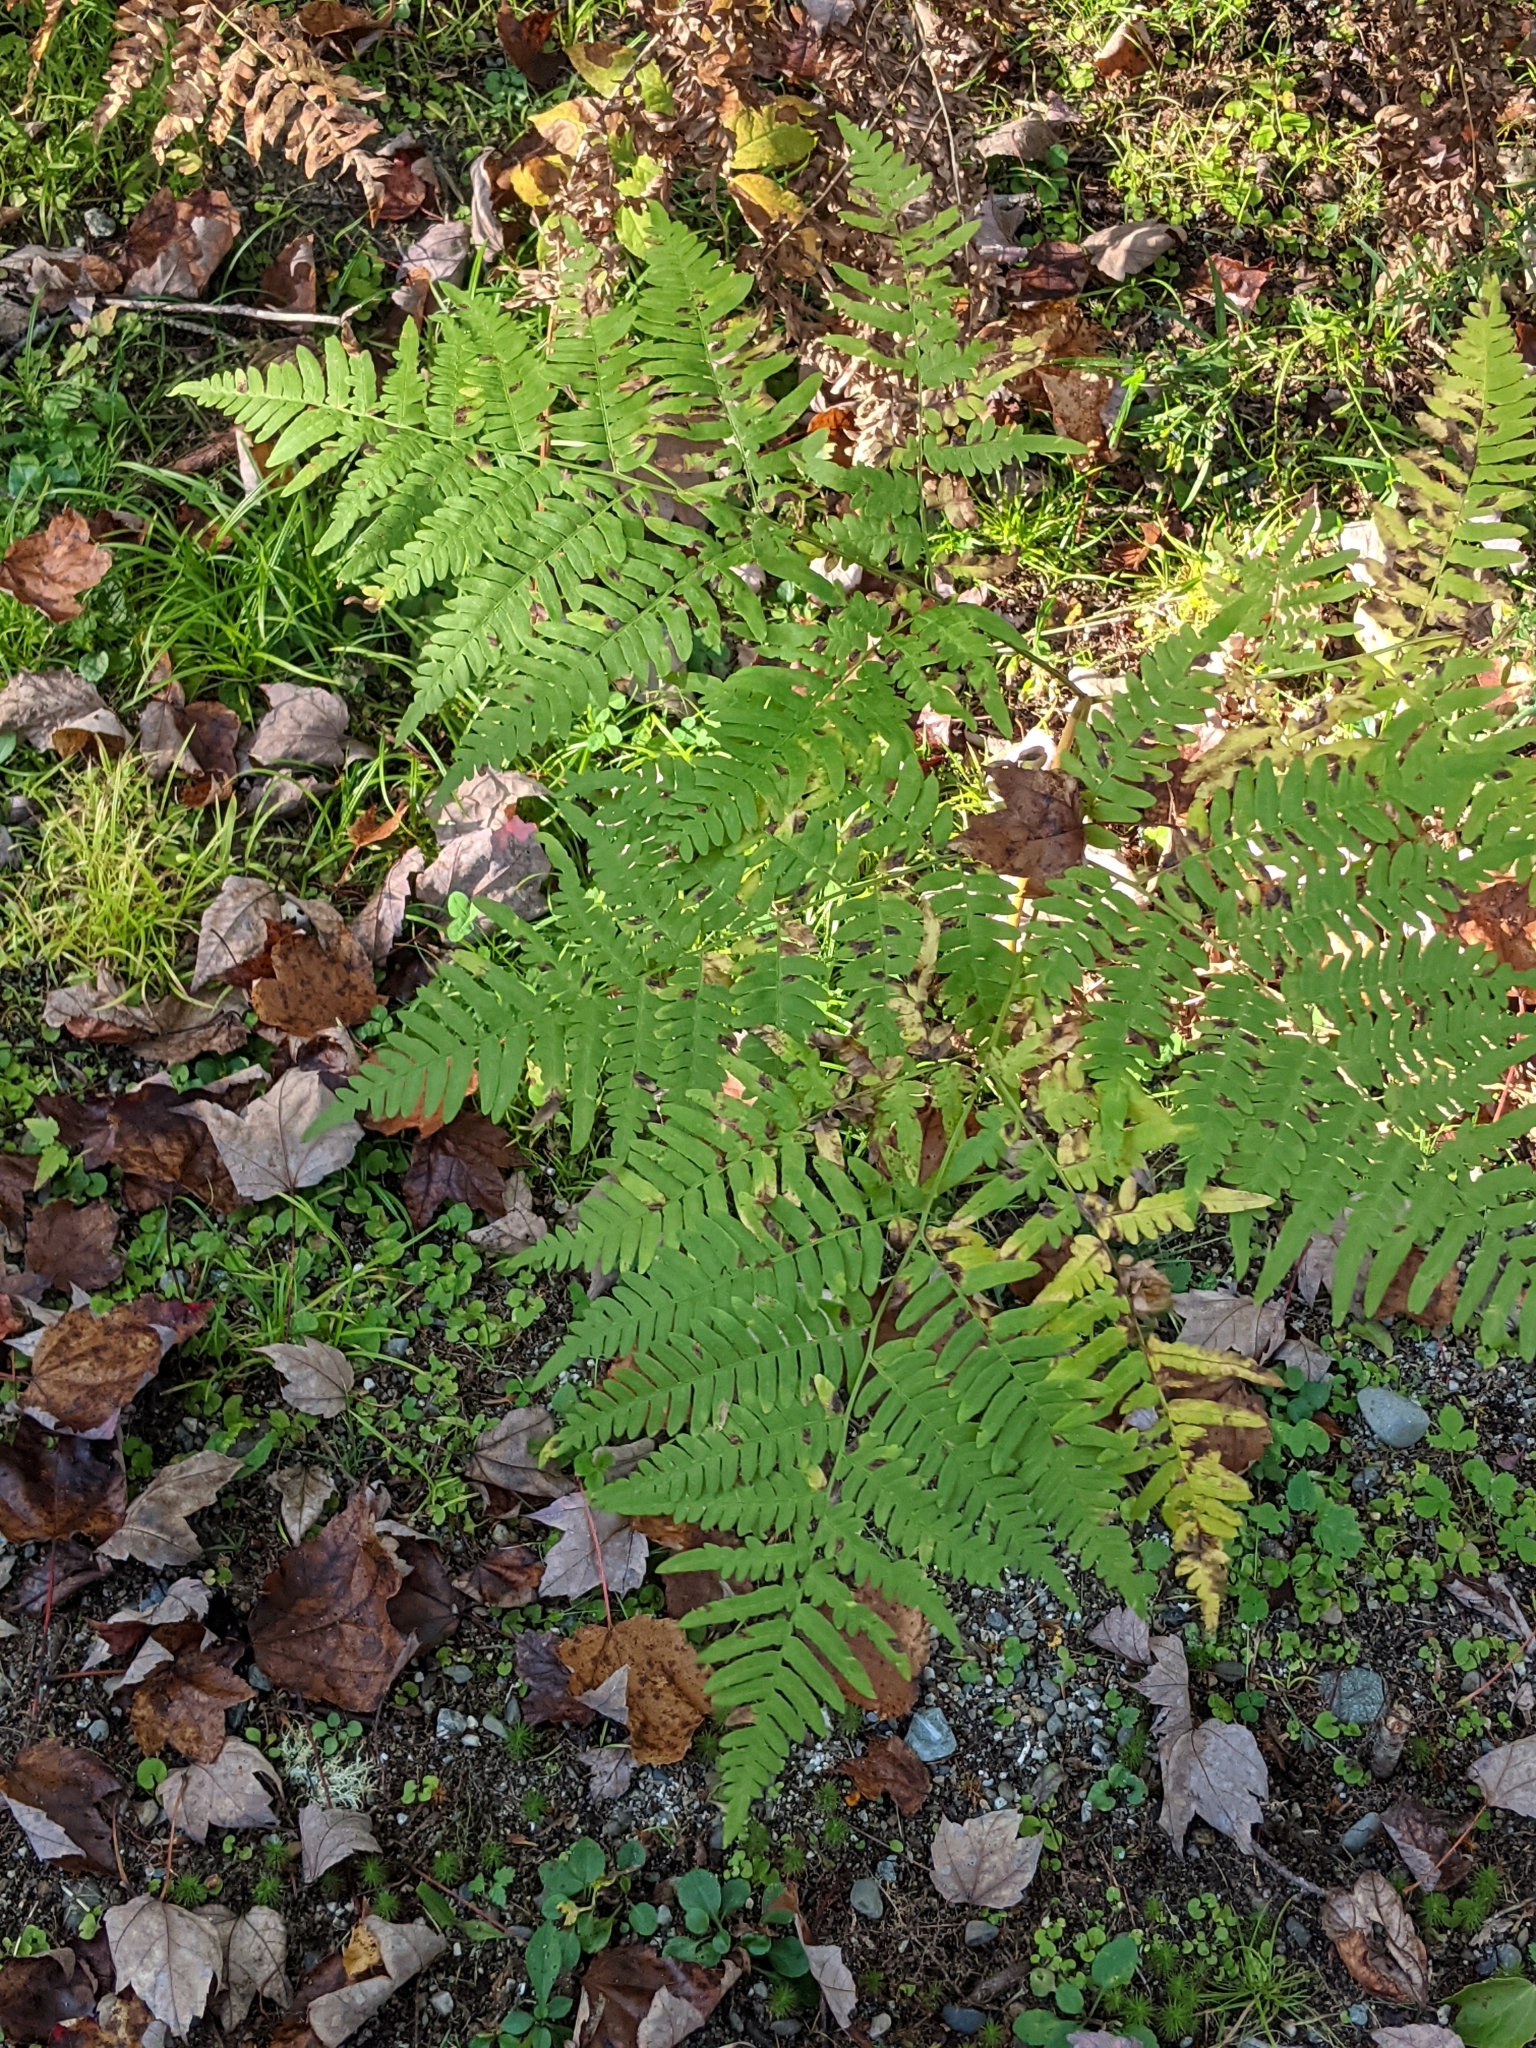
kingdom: Plantae
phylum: Tracheophyta
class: Polypodiopsida
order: Polypodiales
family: Dennstaedtiaceae
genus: Pteridium
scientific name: Pteridium aquilinum
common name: Bracken
